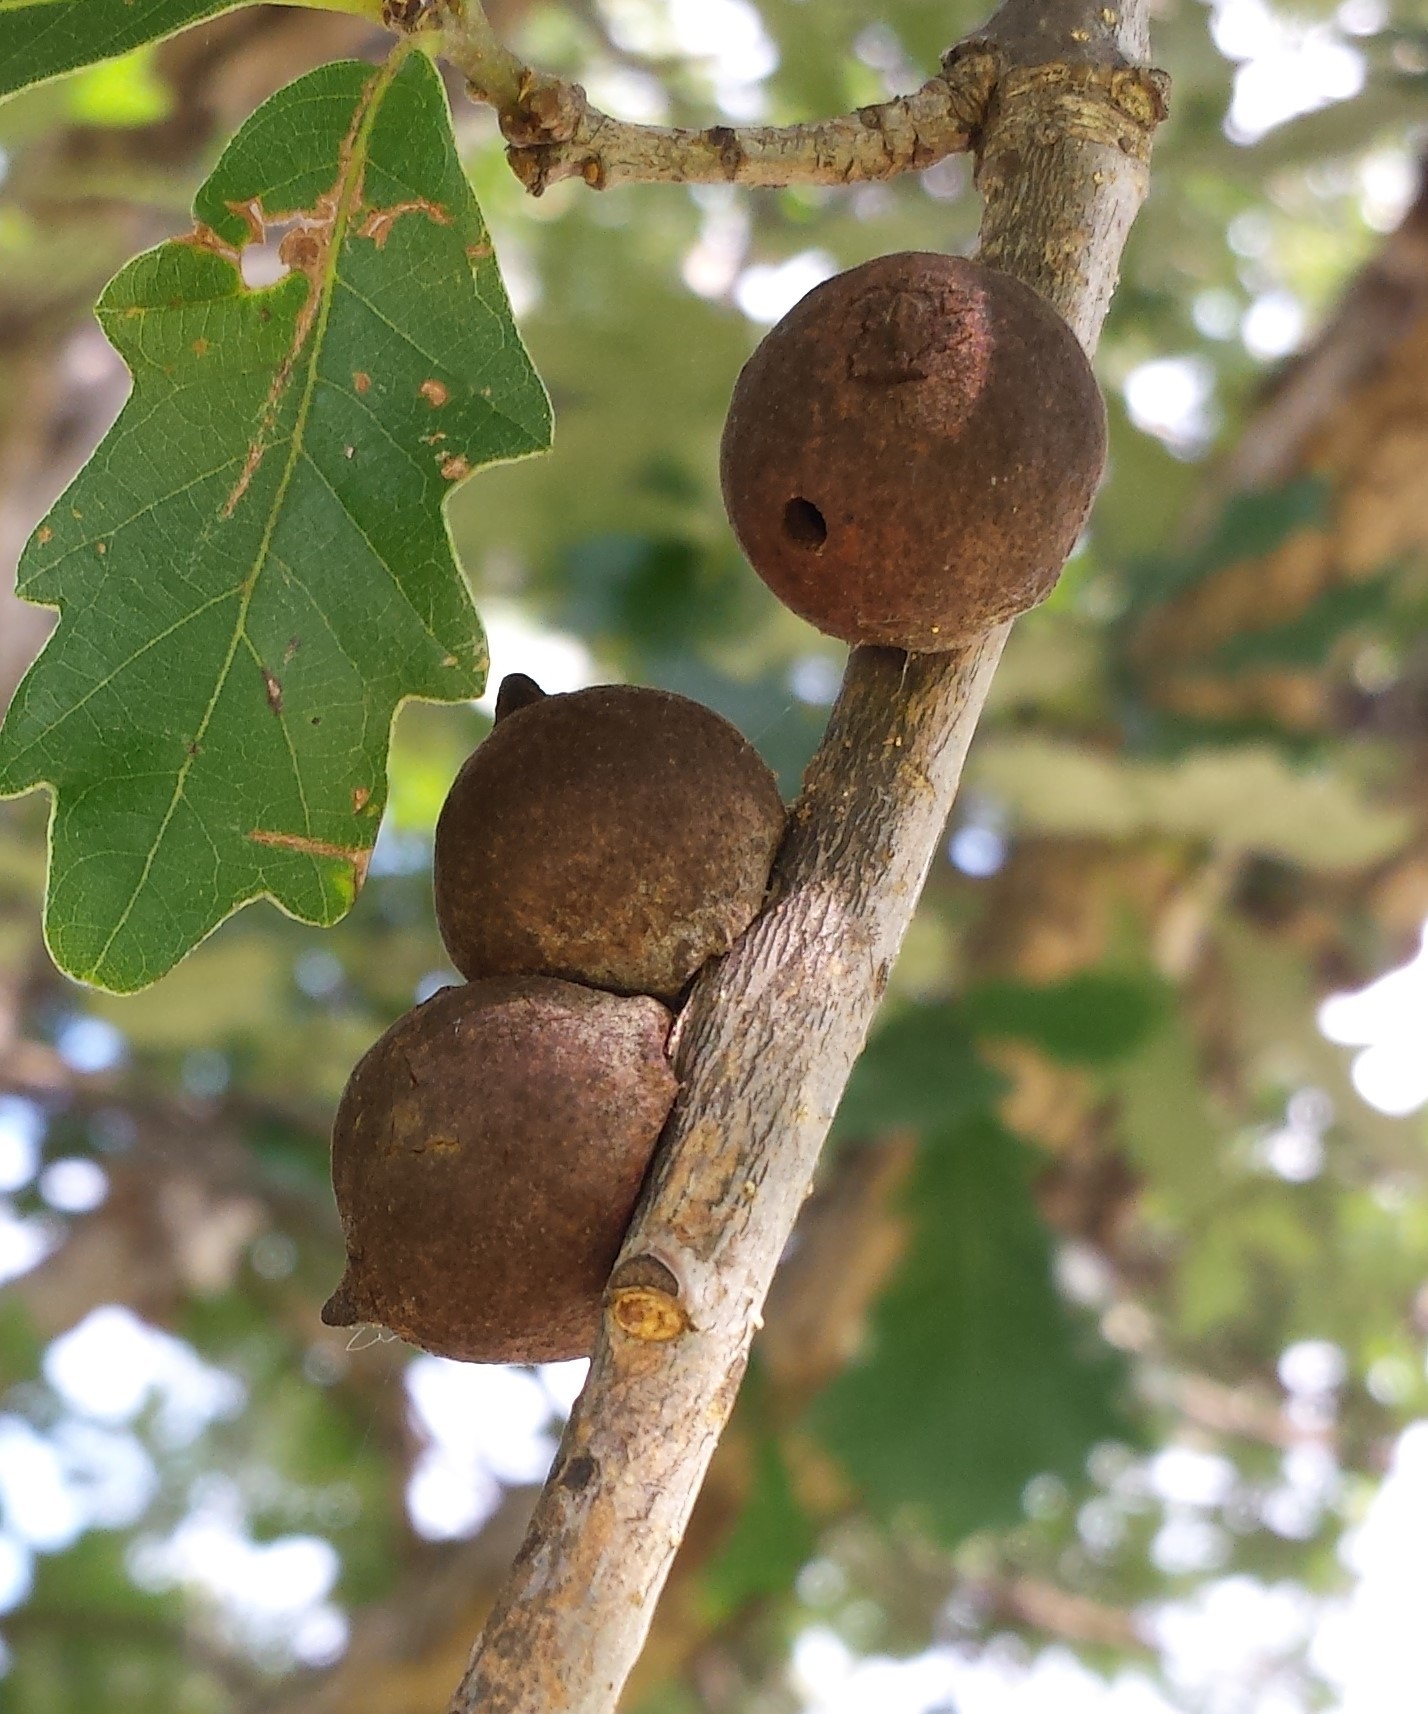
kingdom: Animalia
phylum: Arthropoda
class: Insecta
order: Hymenoptera
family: Cynipidae
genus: Disholcaspis
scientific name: Disholcaspis
